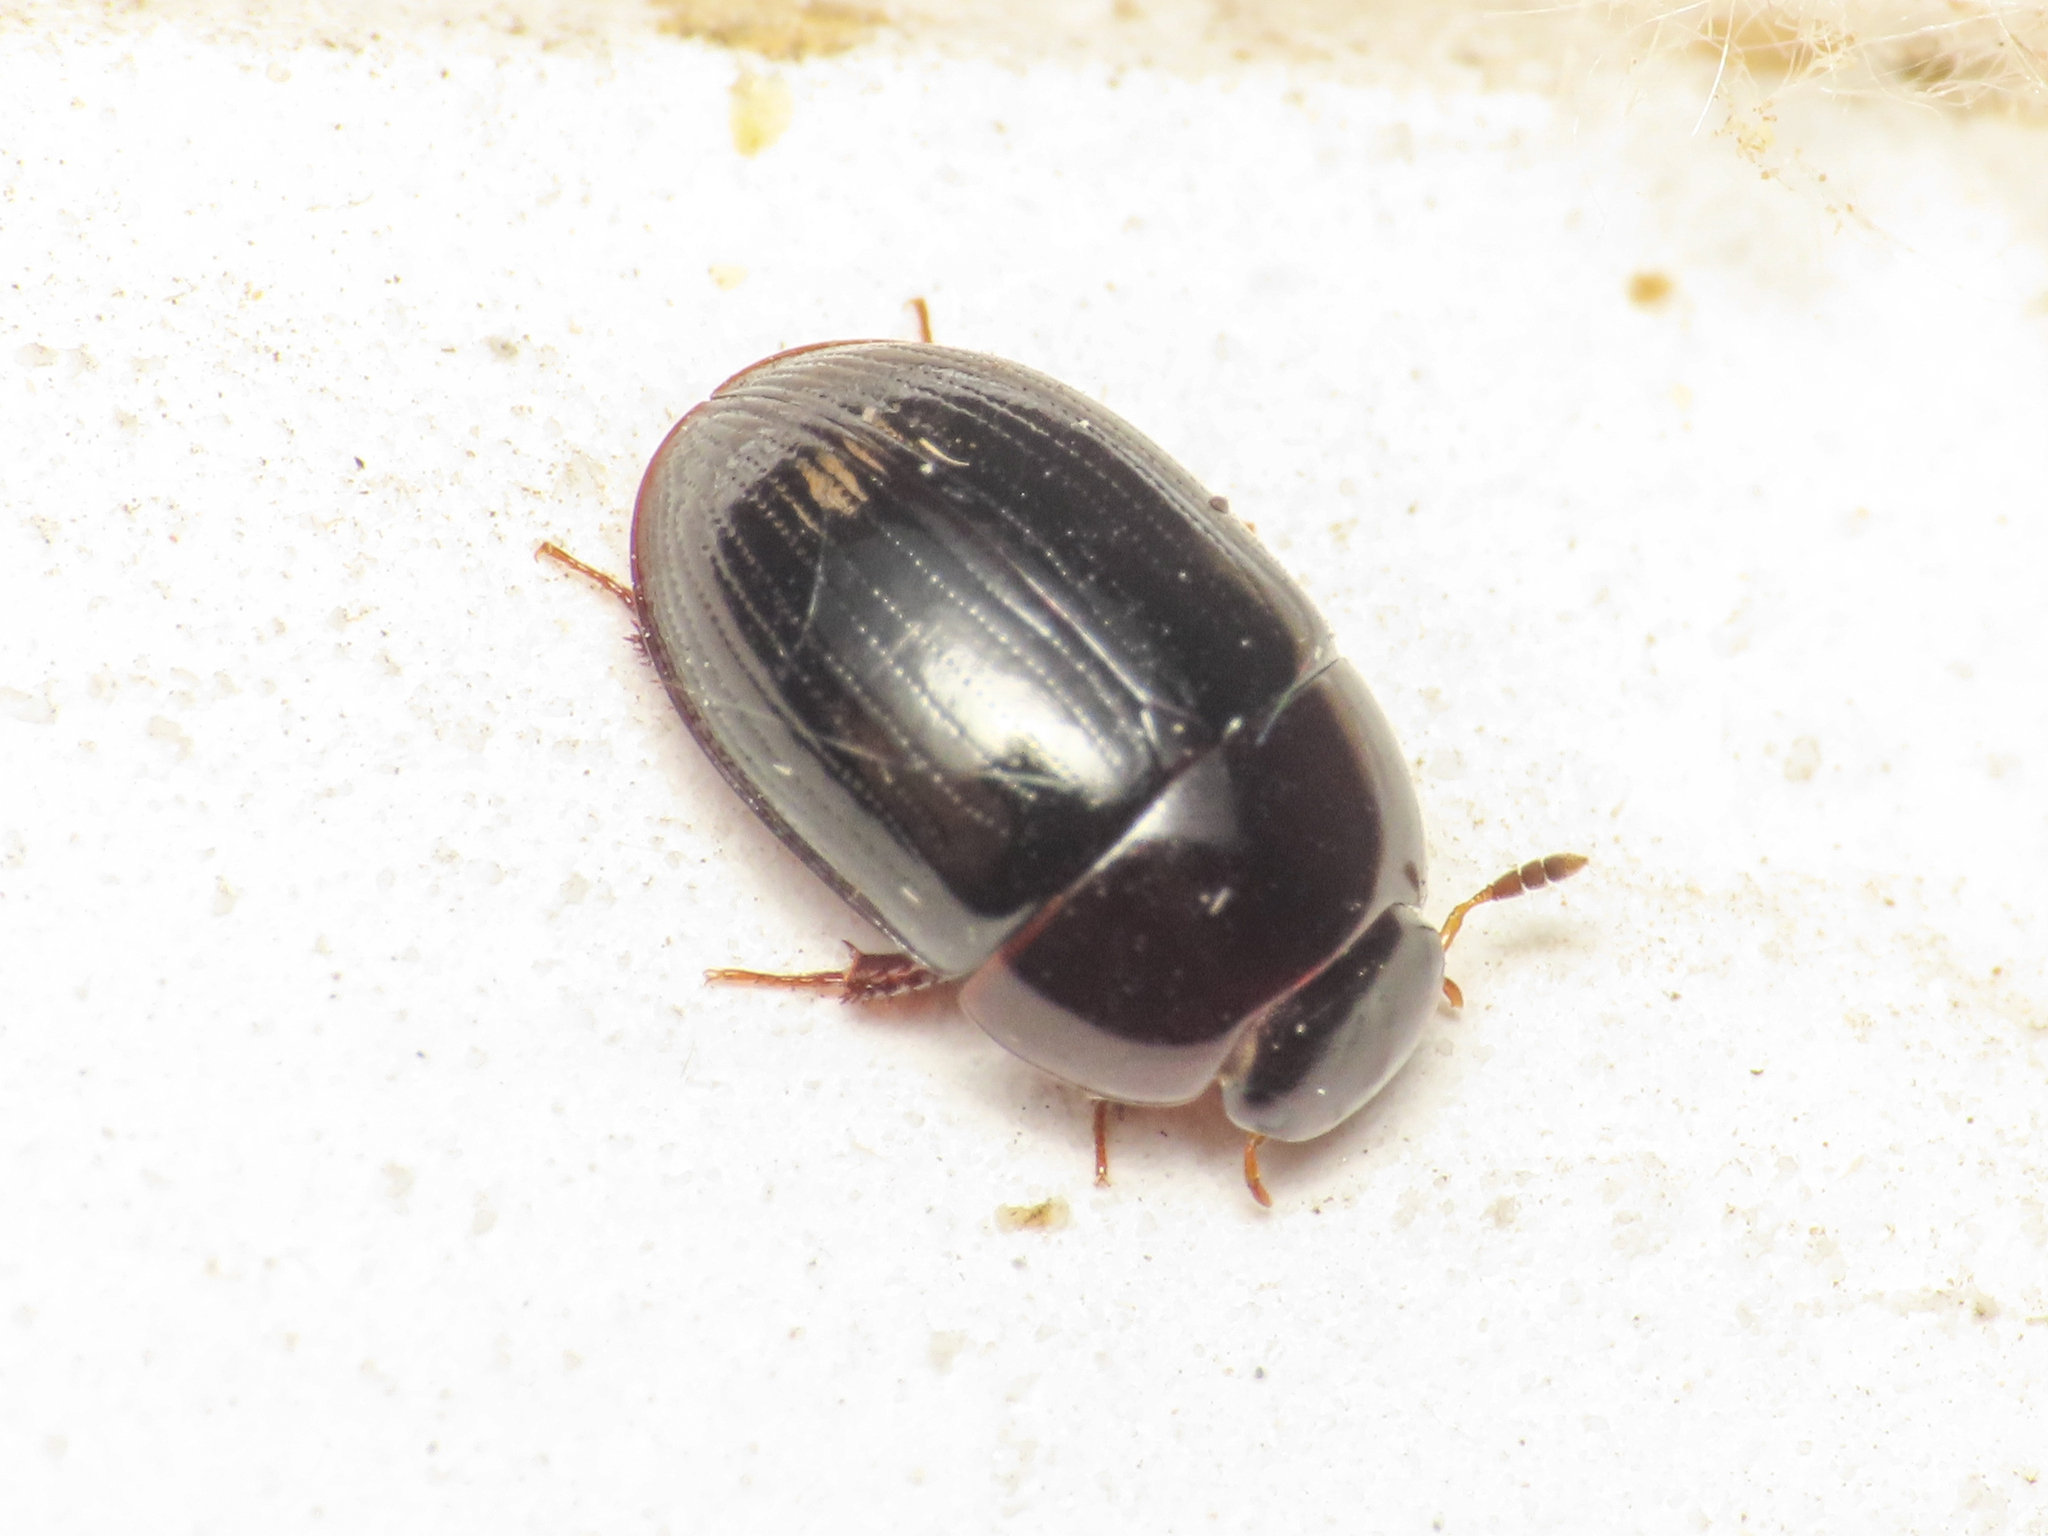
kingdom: Animalia
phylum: Arthropoda
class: Insecta
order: Coleoptera
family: Hydrophilidae
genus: Dactylosternum
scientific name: Dactylosternum abdominale
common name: Water scavenger beetle
